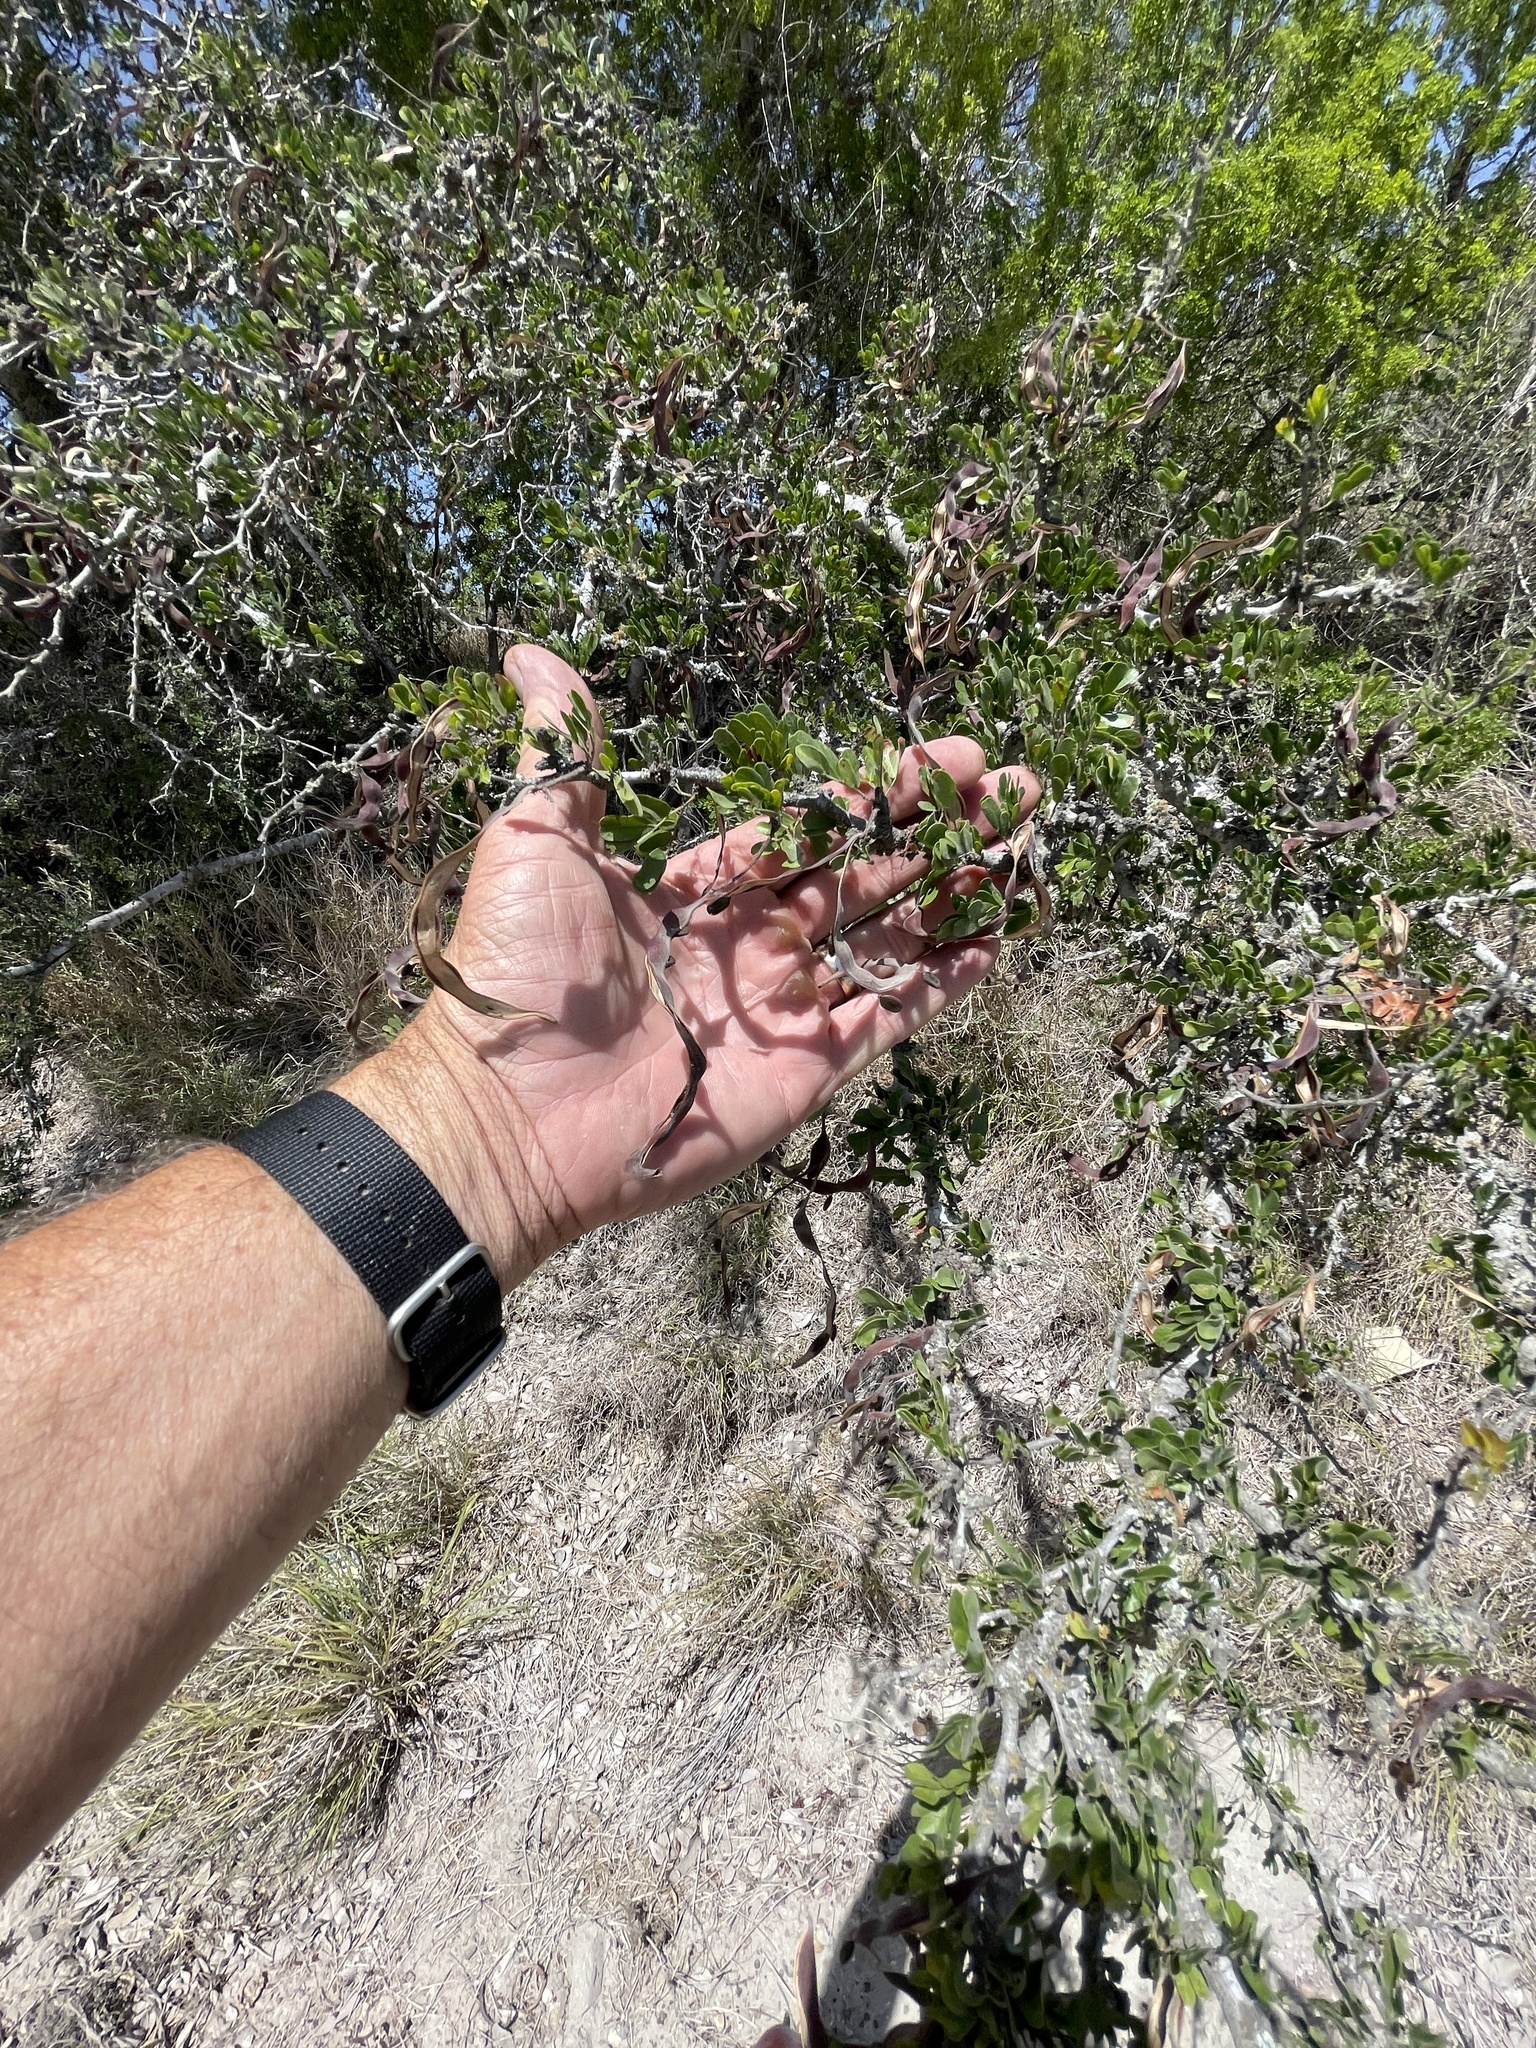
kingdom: Plantae
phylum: Tracheophyta
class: Magnoliopsida
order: Fabales
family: Fabaceae
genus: Vachellia
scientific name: Vachellia rigidula
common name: Blackbrush
